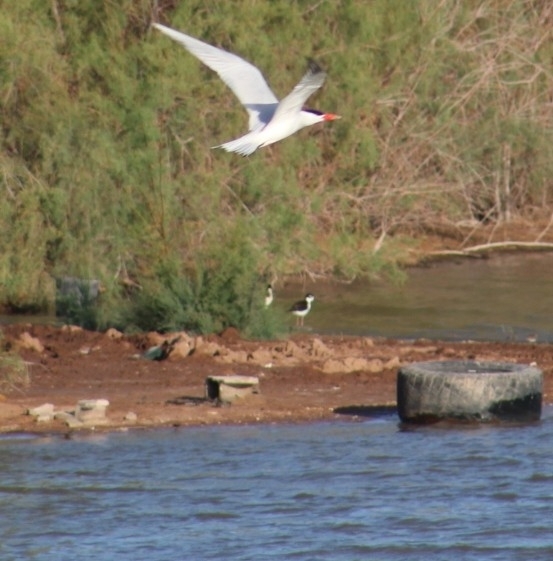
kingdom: Animalia
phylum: Chordata
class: Aves
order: Charadriiformes
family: Recurvirostridae
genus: Himantopus
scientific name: Himantopus mexicanus
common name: Black-necked stilt
